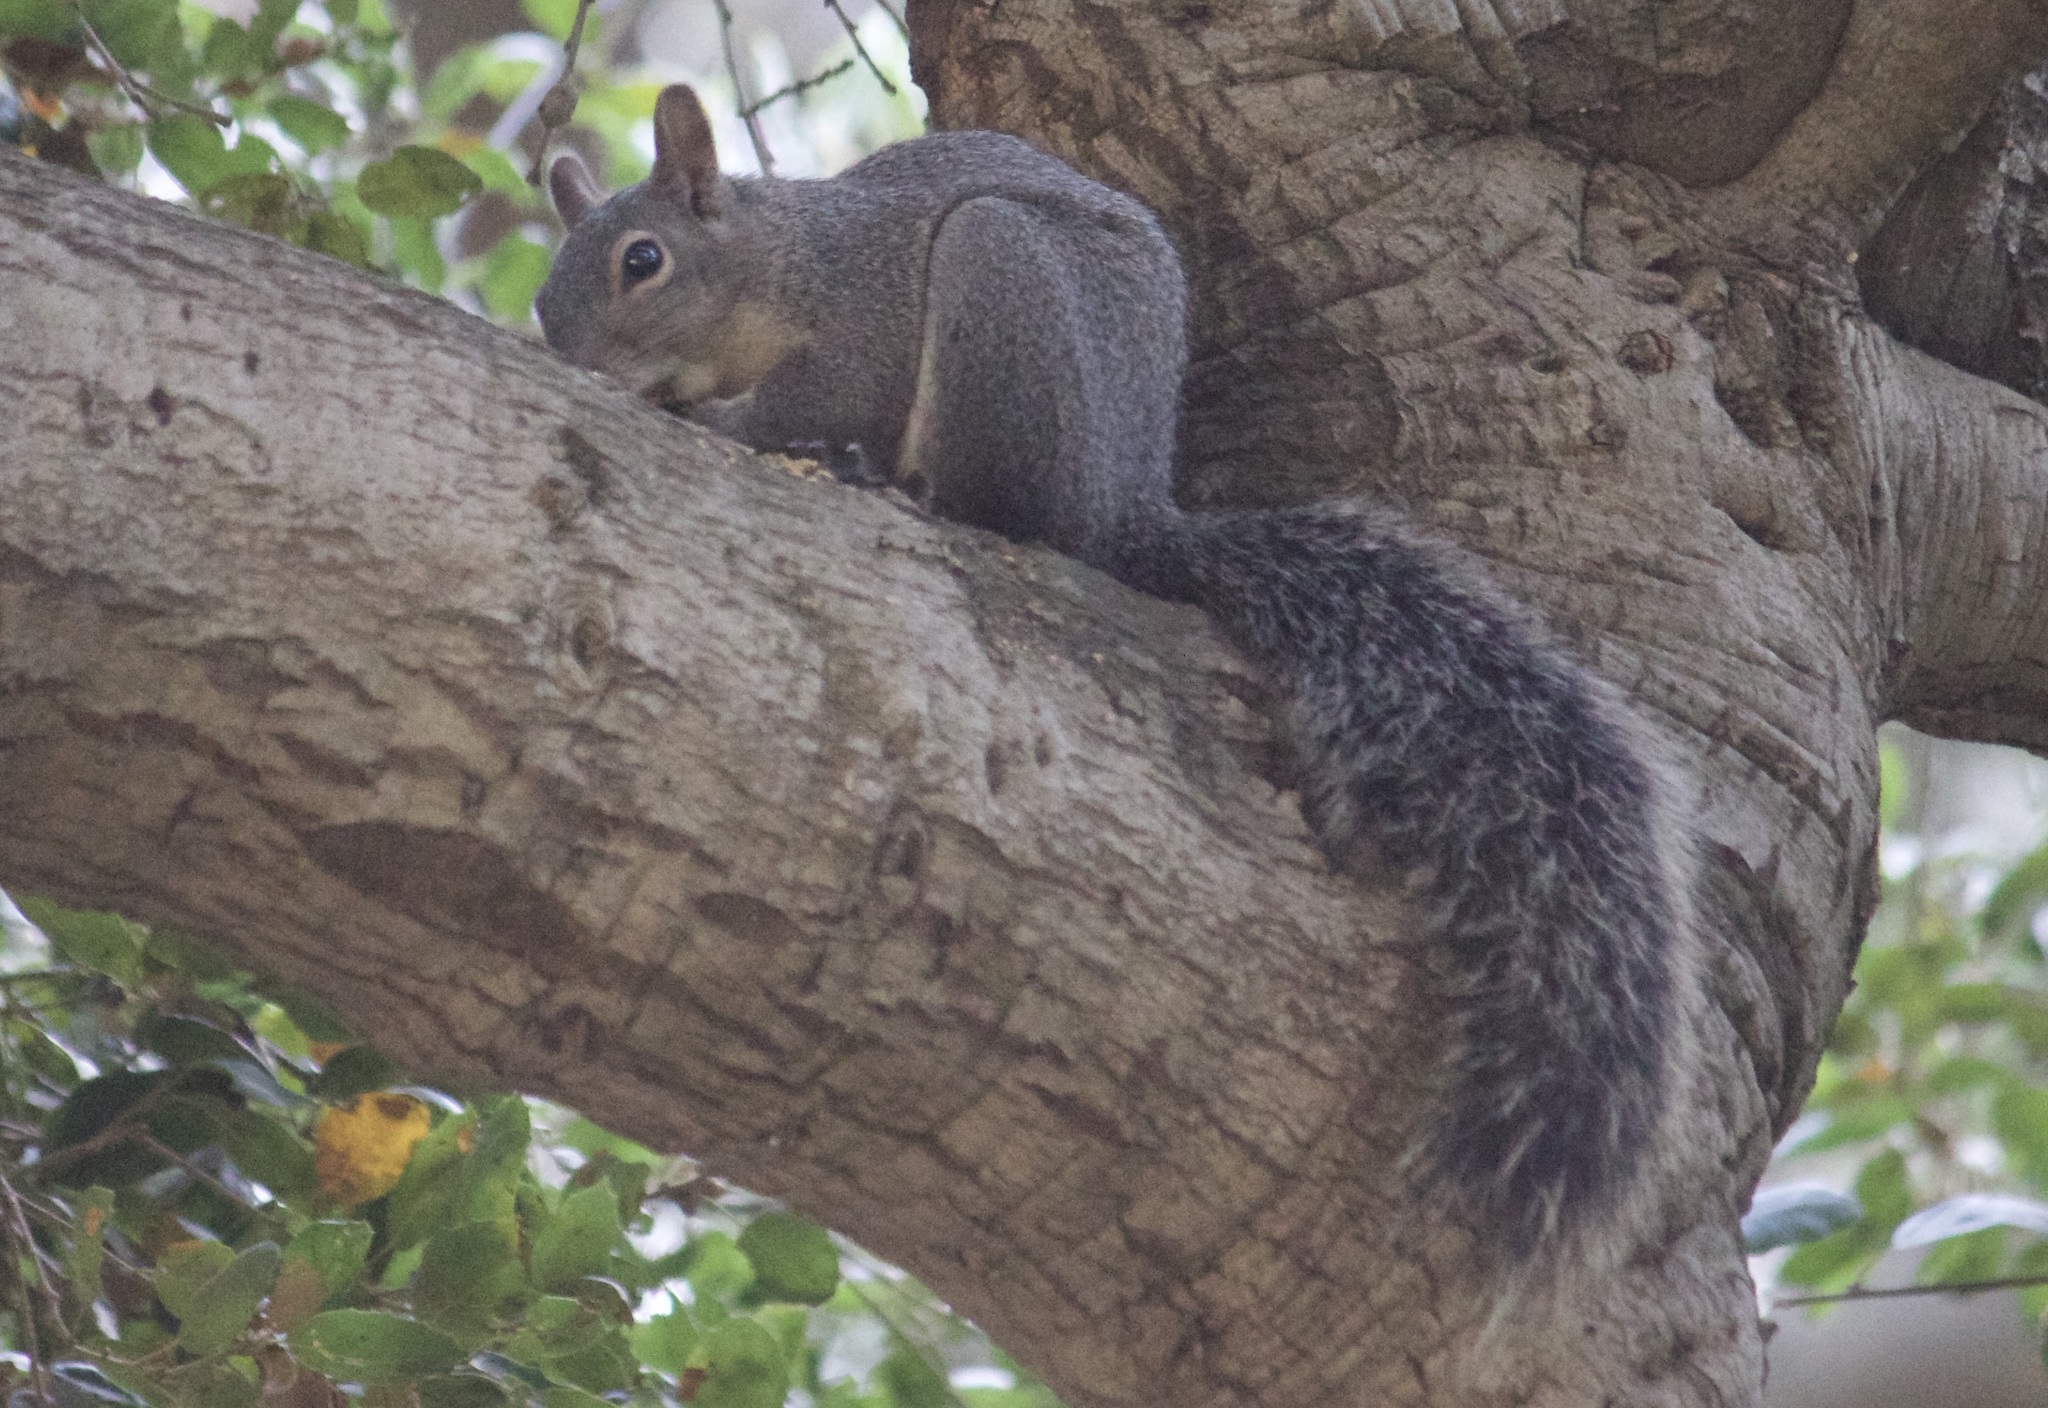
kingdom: Animalia
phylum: Chordata
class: Mammalia
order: Rodentia
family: Sciuridae
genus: Sciurus
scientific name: Sciurus griseus
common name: Western gray squirrel
